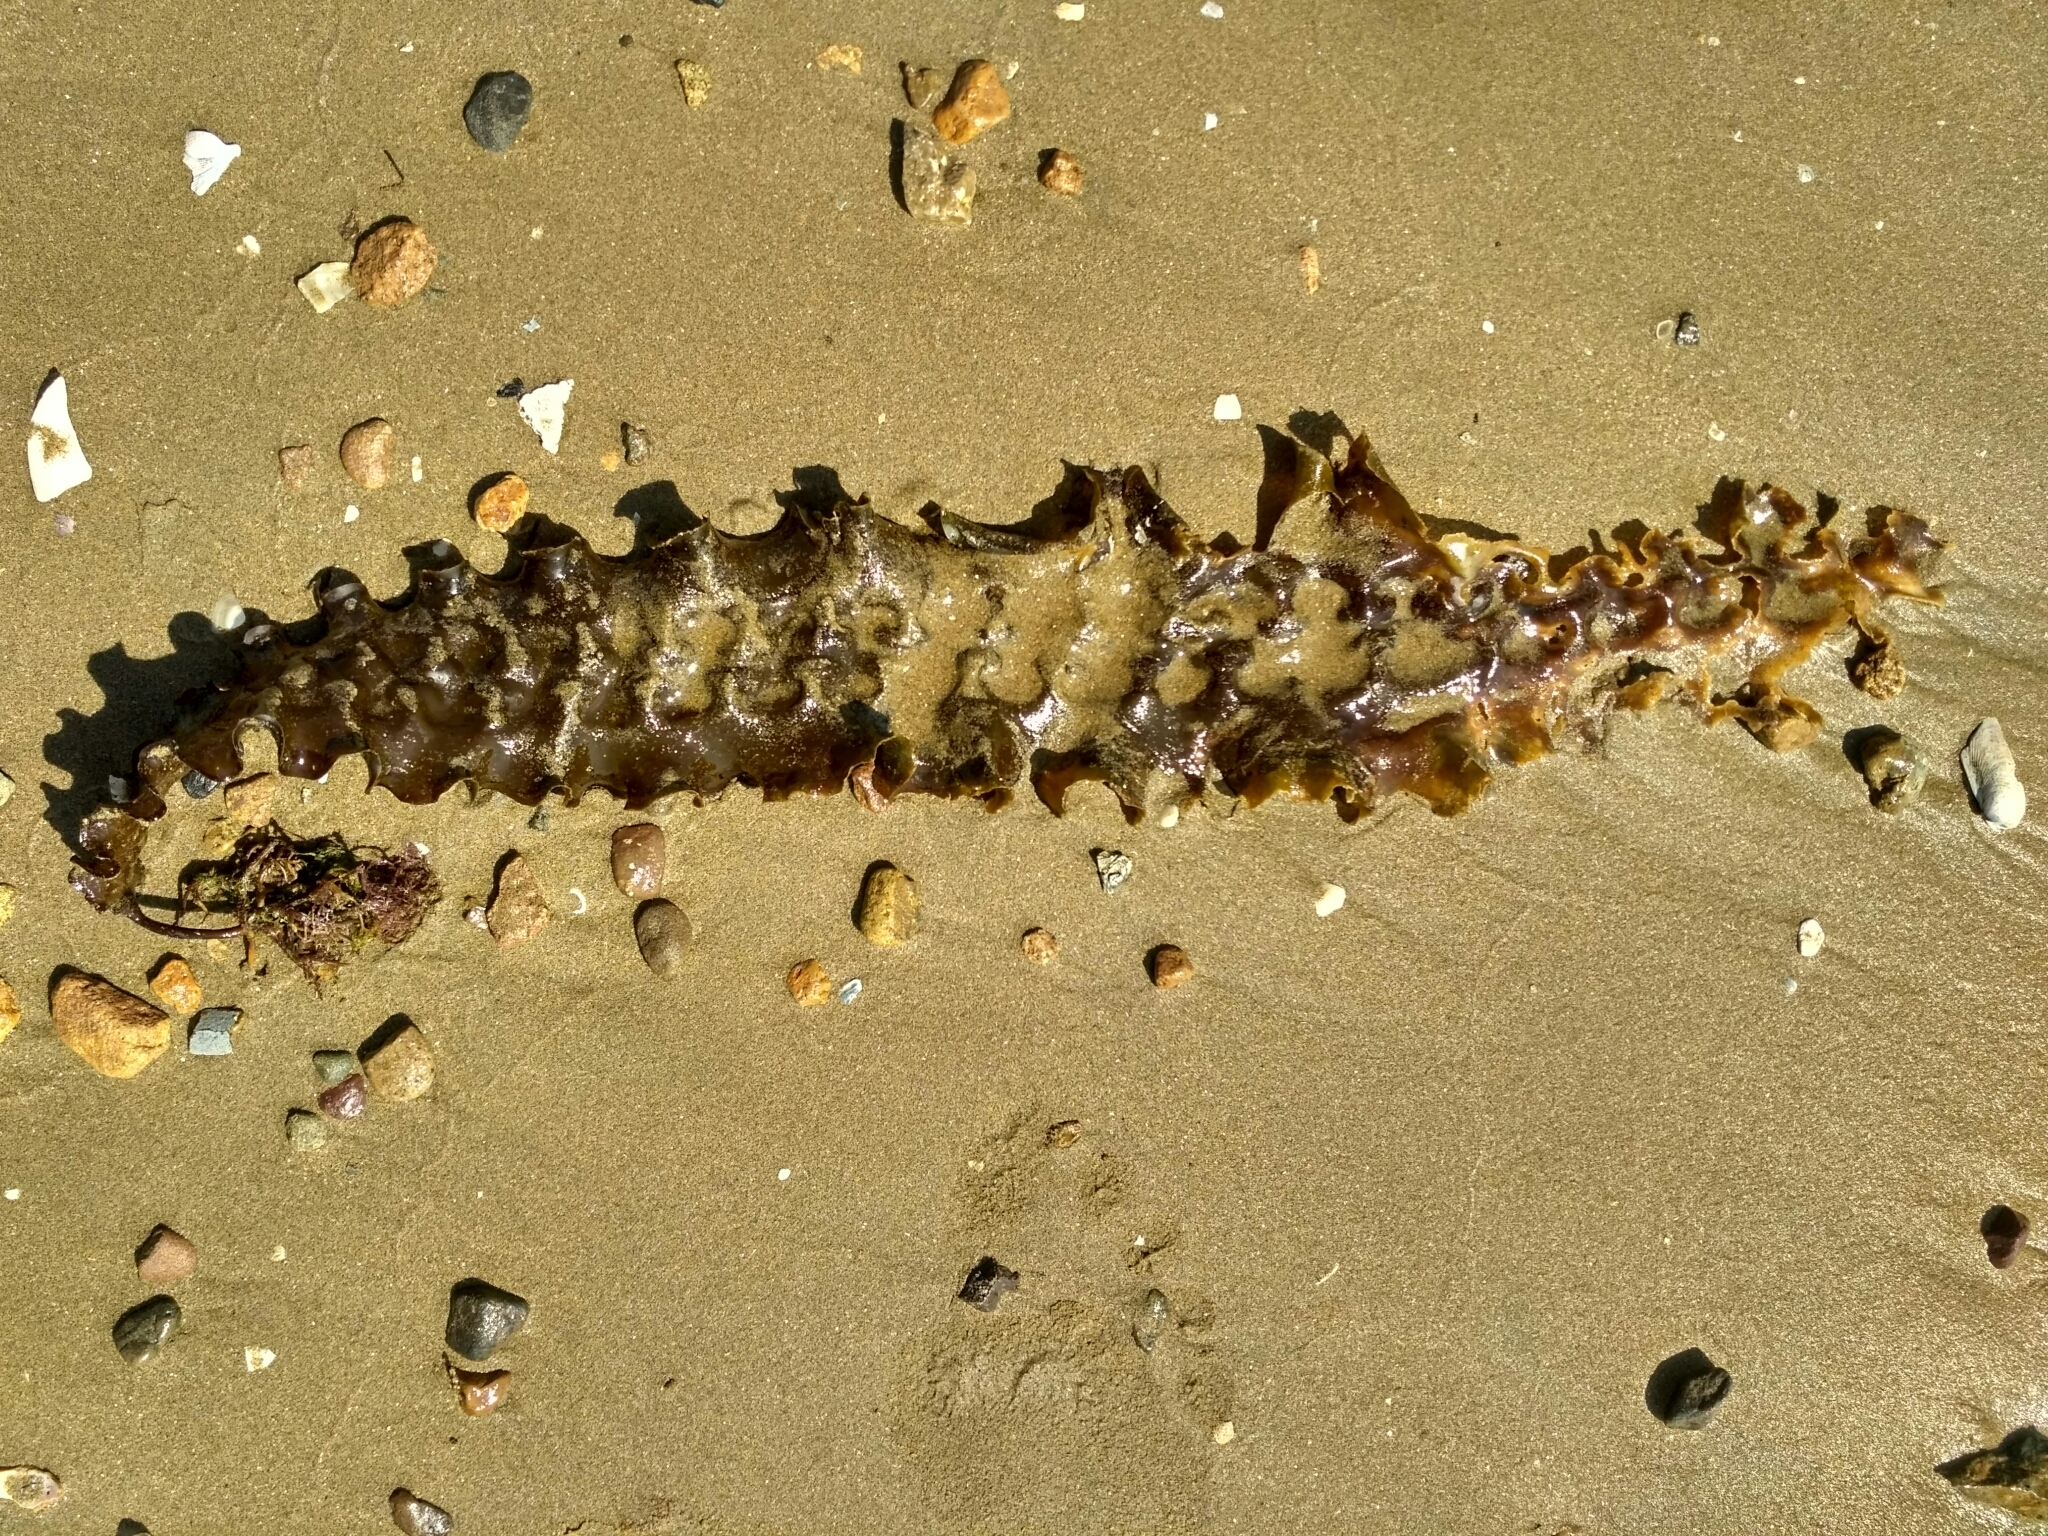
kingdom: Chromista
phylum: Ochrophyta
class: Phaeophyceae
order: Laminariales
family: Laminariaceae
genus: Saccharina
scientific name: Saccharina
